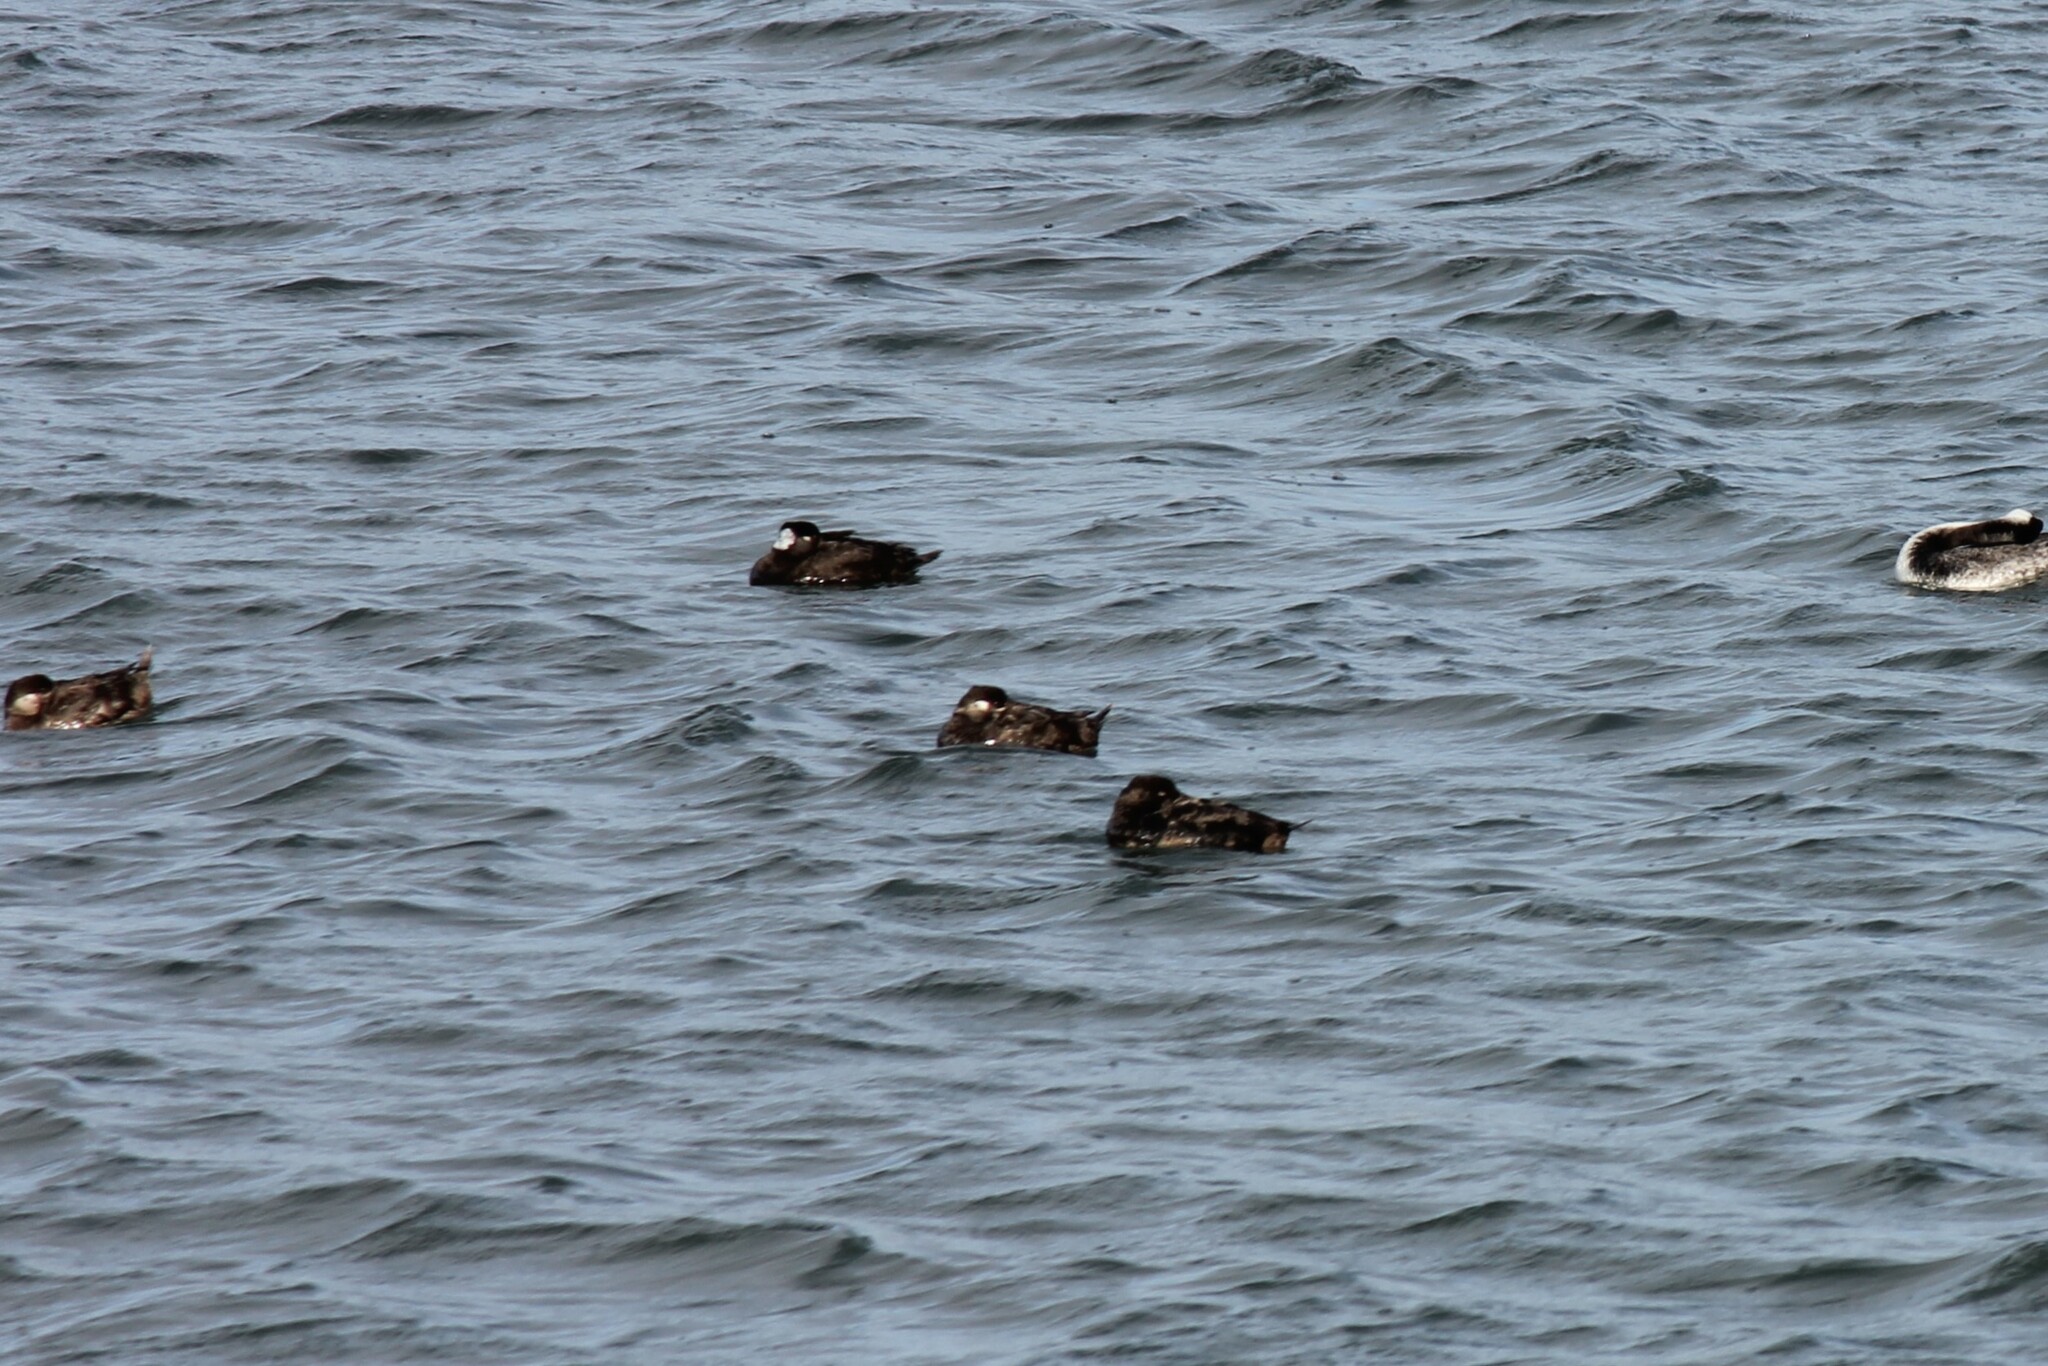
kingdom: Animalia
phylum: Chordata
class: Aves
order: Anseriformes
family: Anatidae
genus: Melanitta
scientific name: Melanitta perspicillata
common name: Surf scoter
